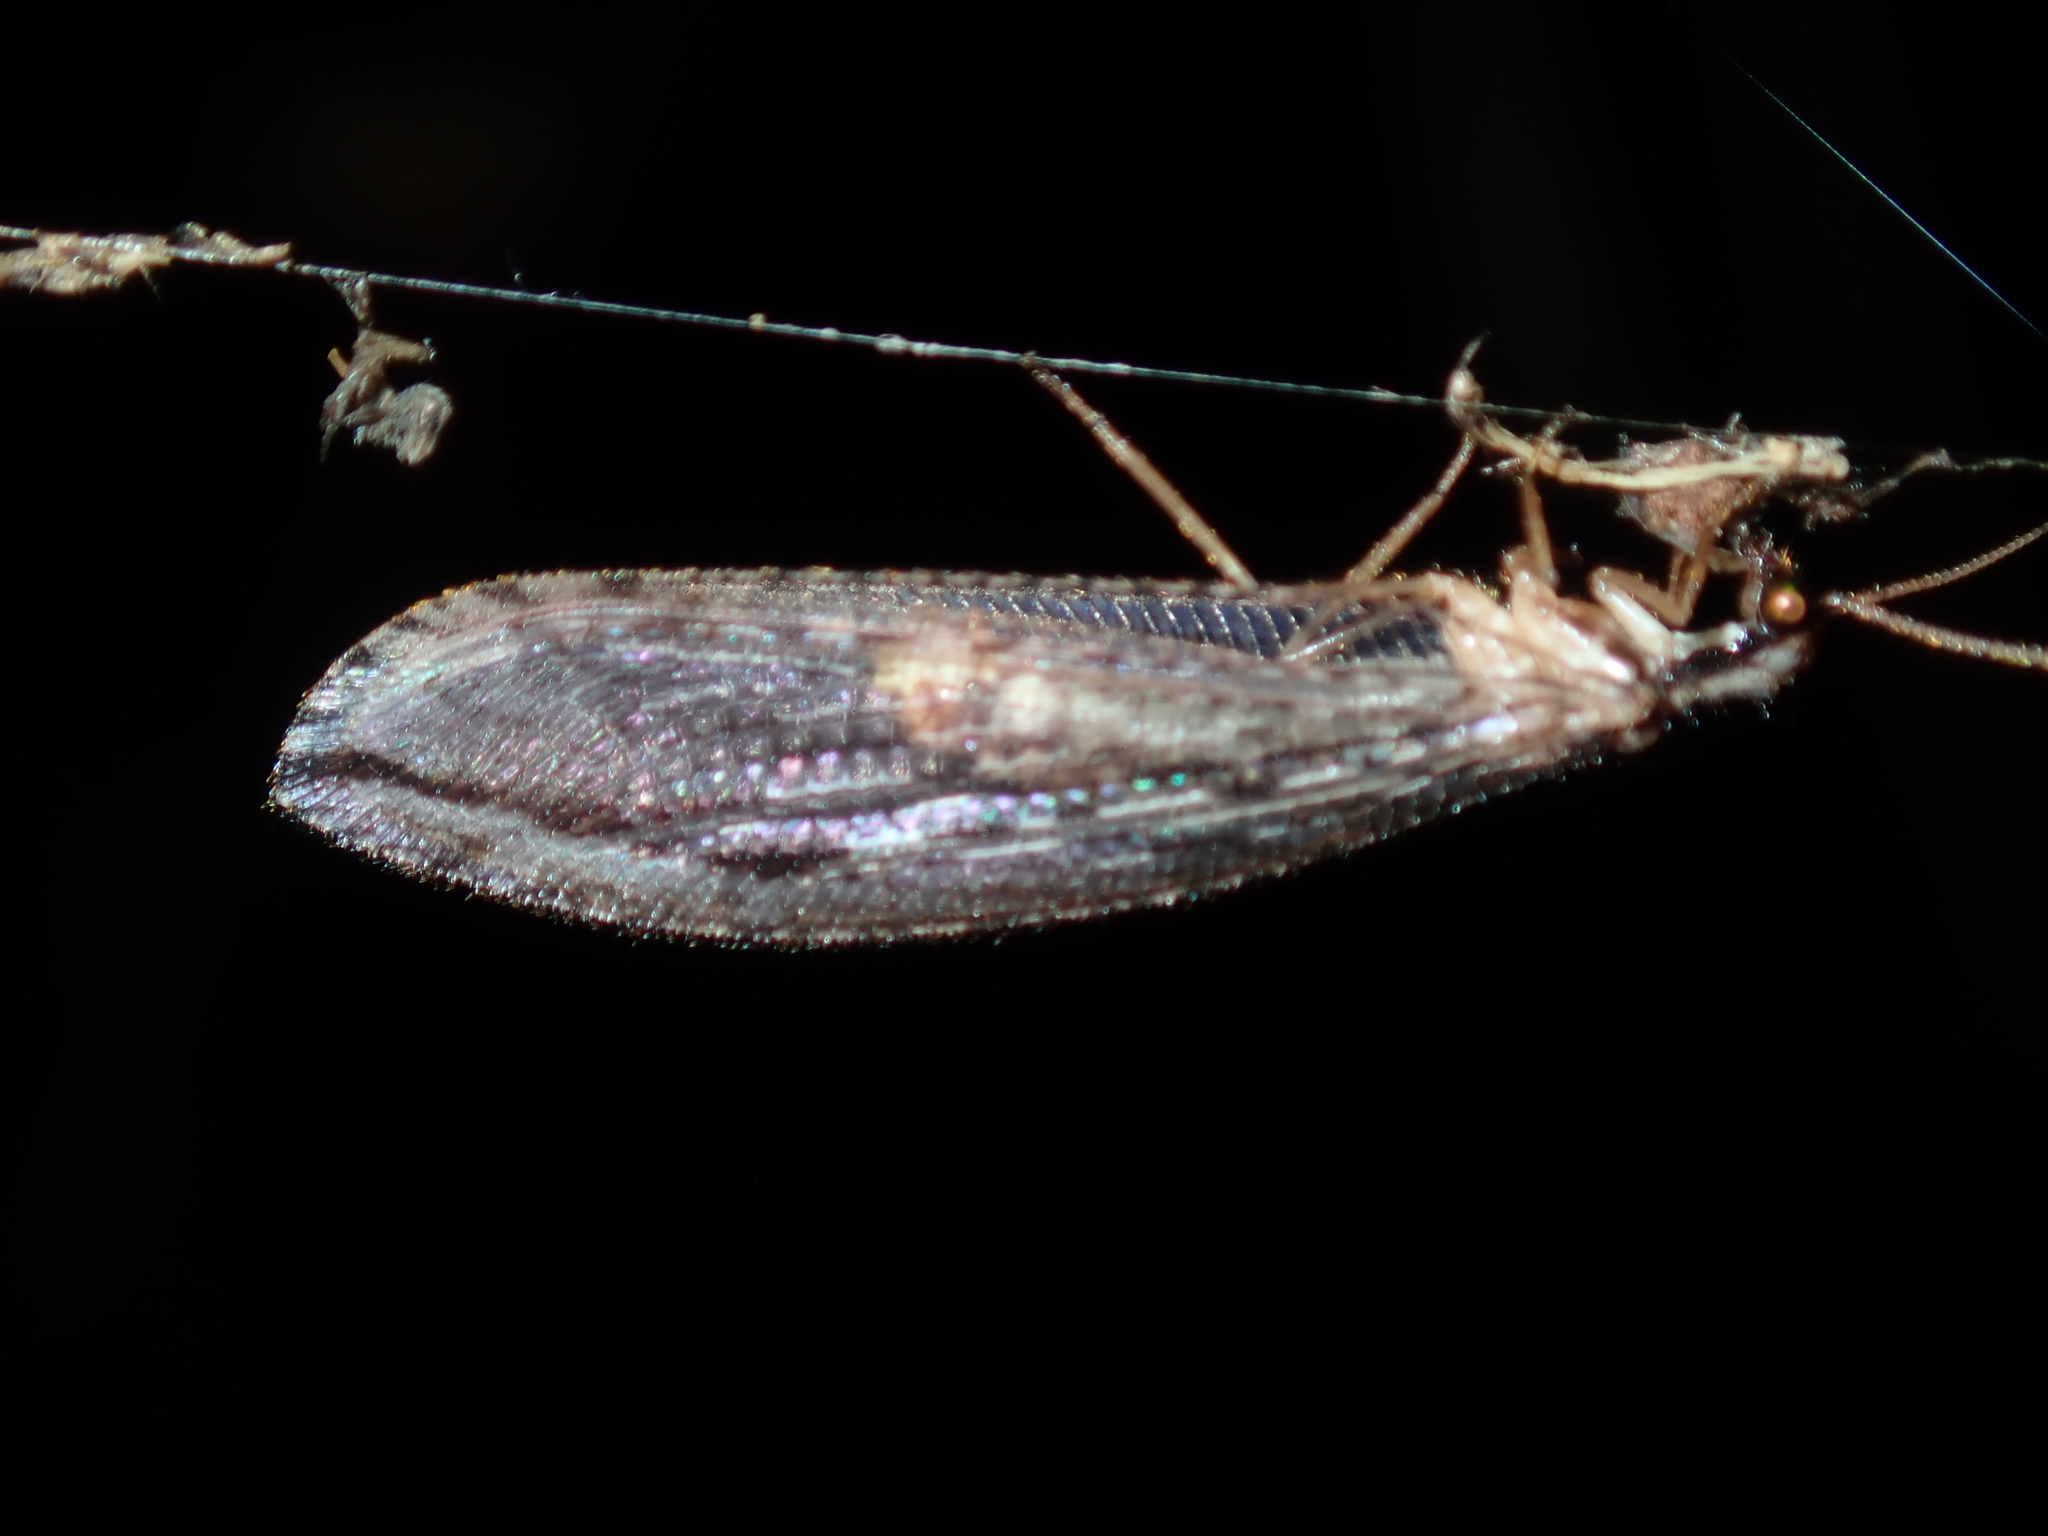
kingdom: Animalia
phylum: Arthropoda
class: Insecta
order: Neuroptera
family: Osmylidae
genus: Stenosmylus
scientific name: Stenosmylus stenopterus
